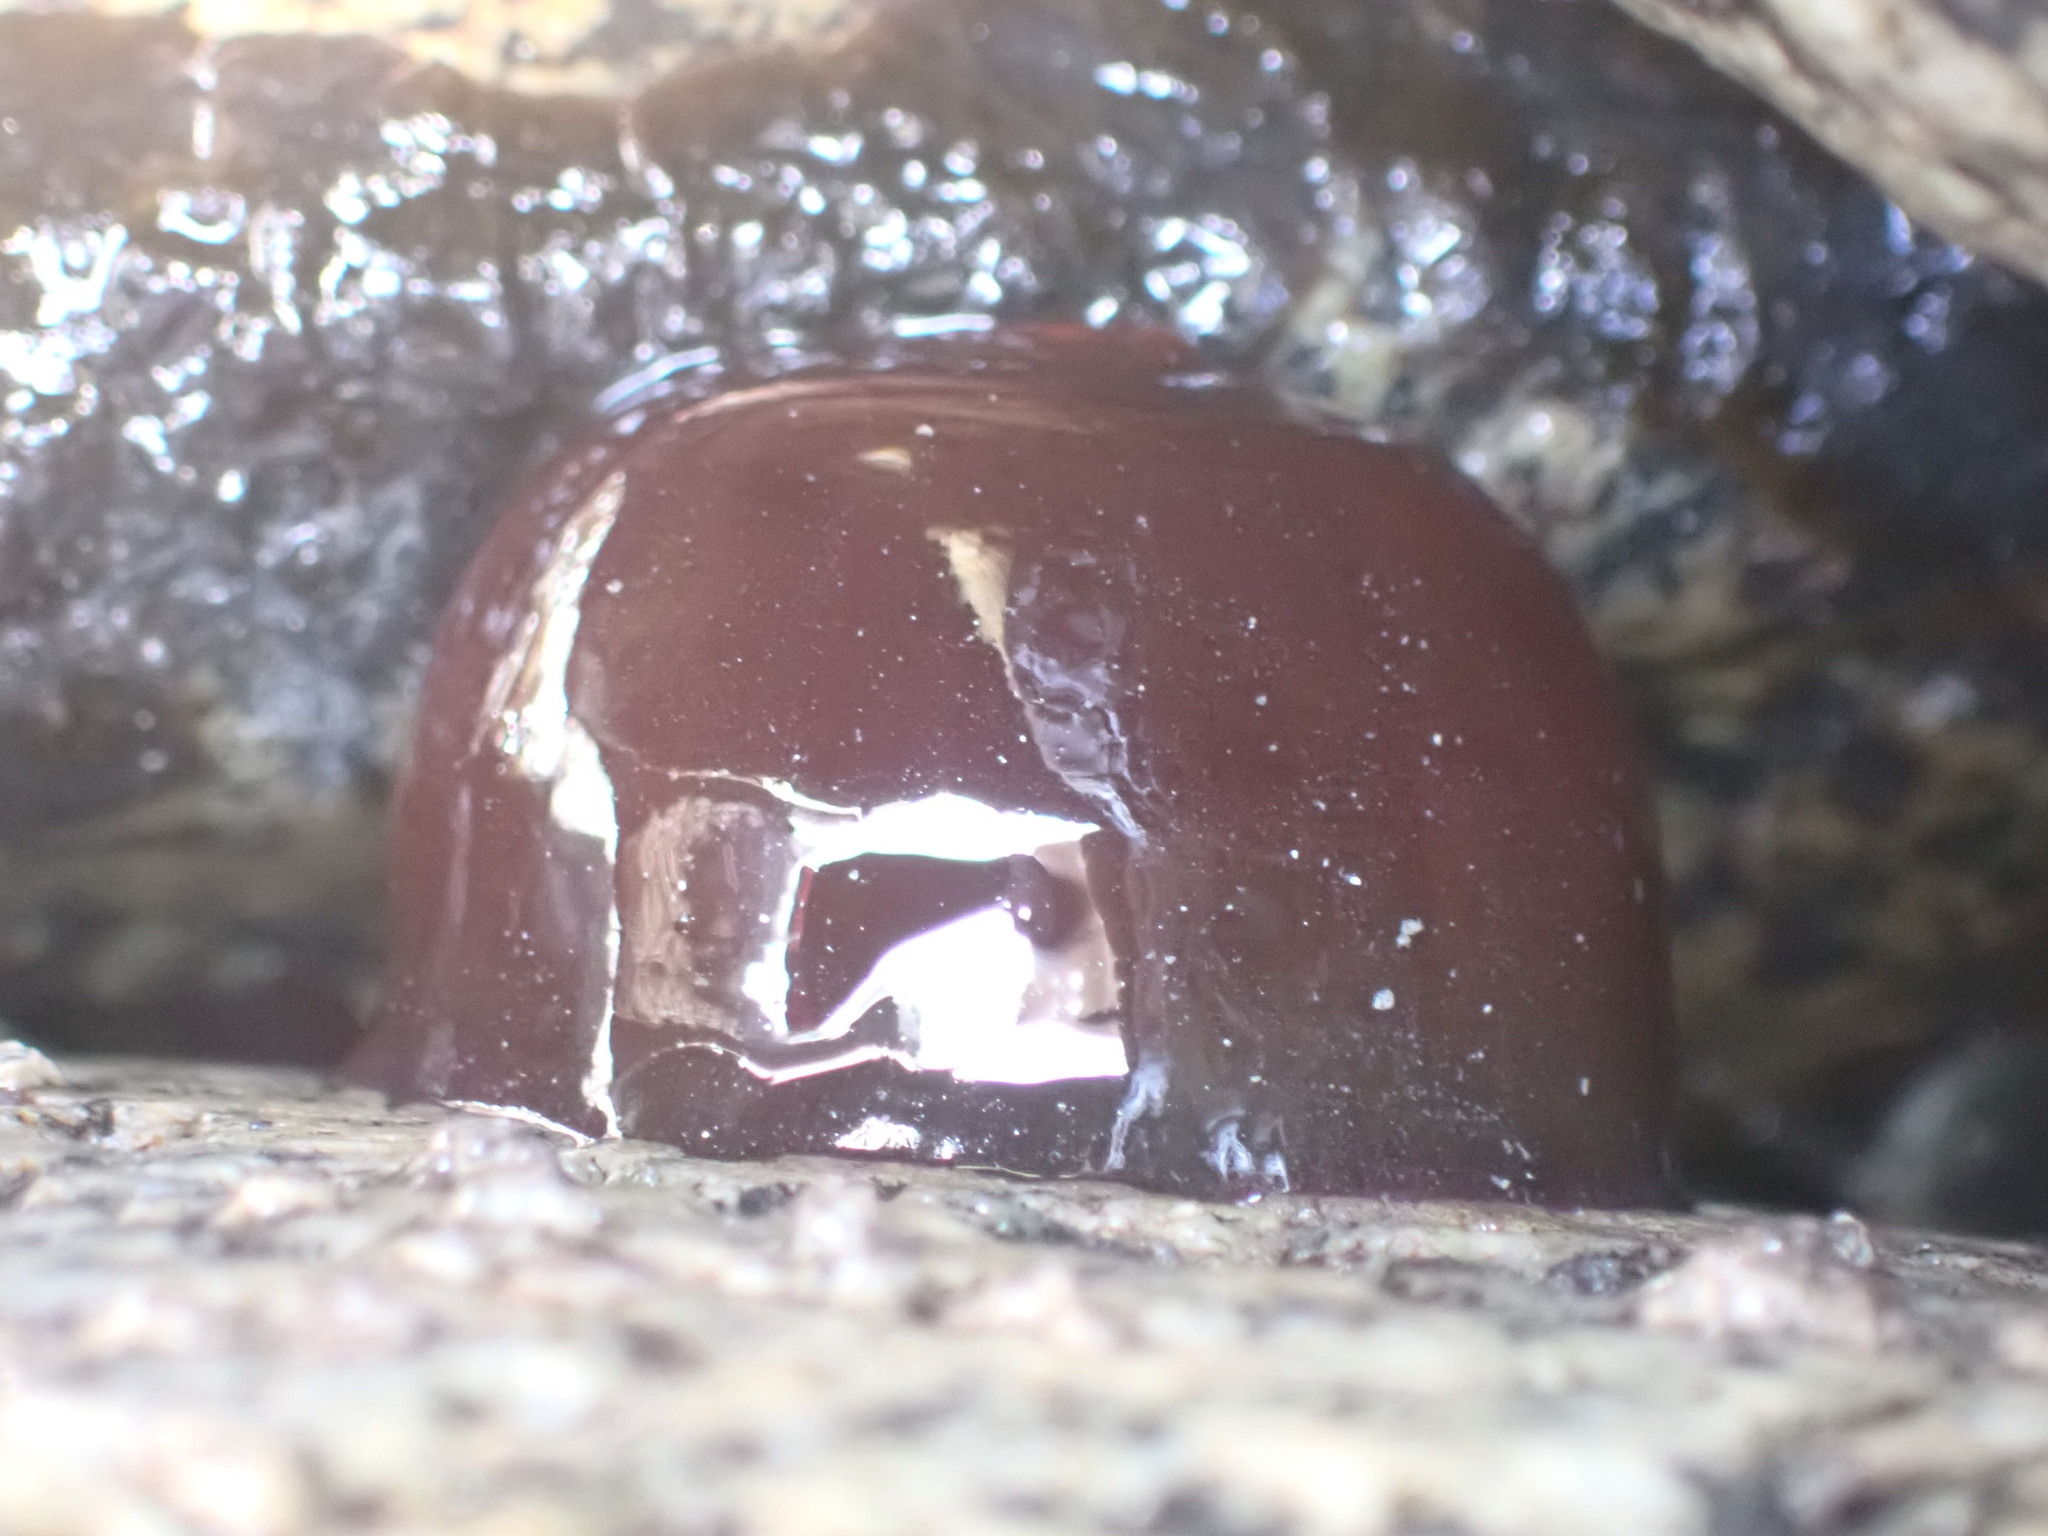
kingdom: Animalia
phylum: Cnidaria
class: Anthozoa
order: Actiniaria
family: Actiniidae
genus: Actinia
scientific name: Actinia tenebrosa
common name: Waratah anemone
